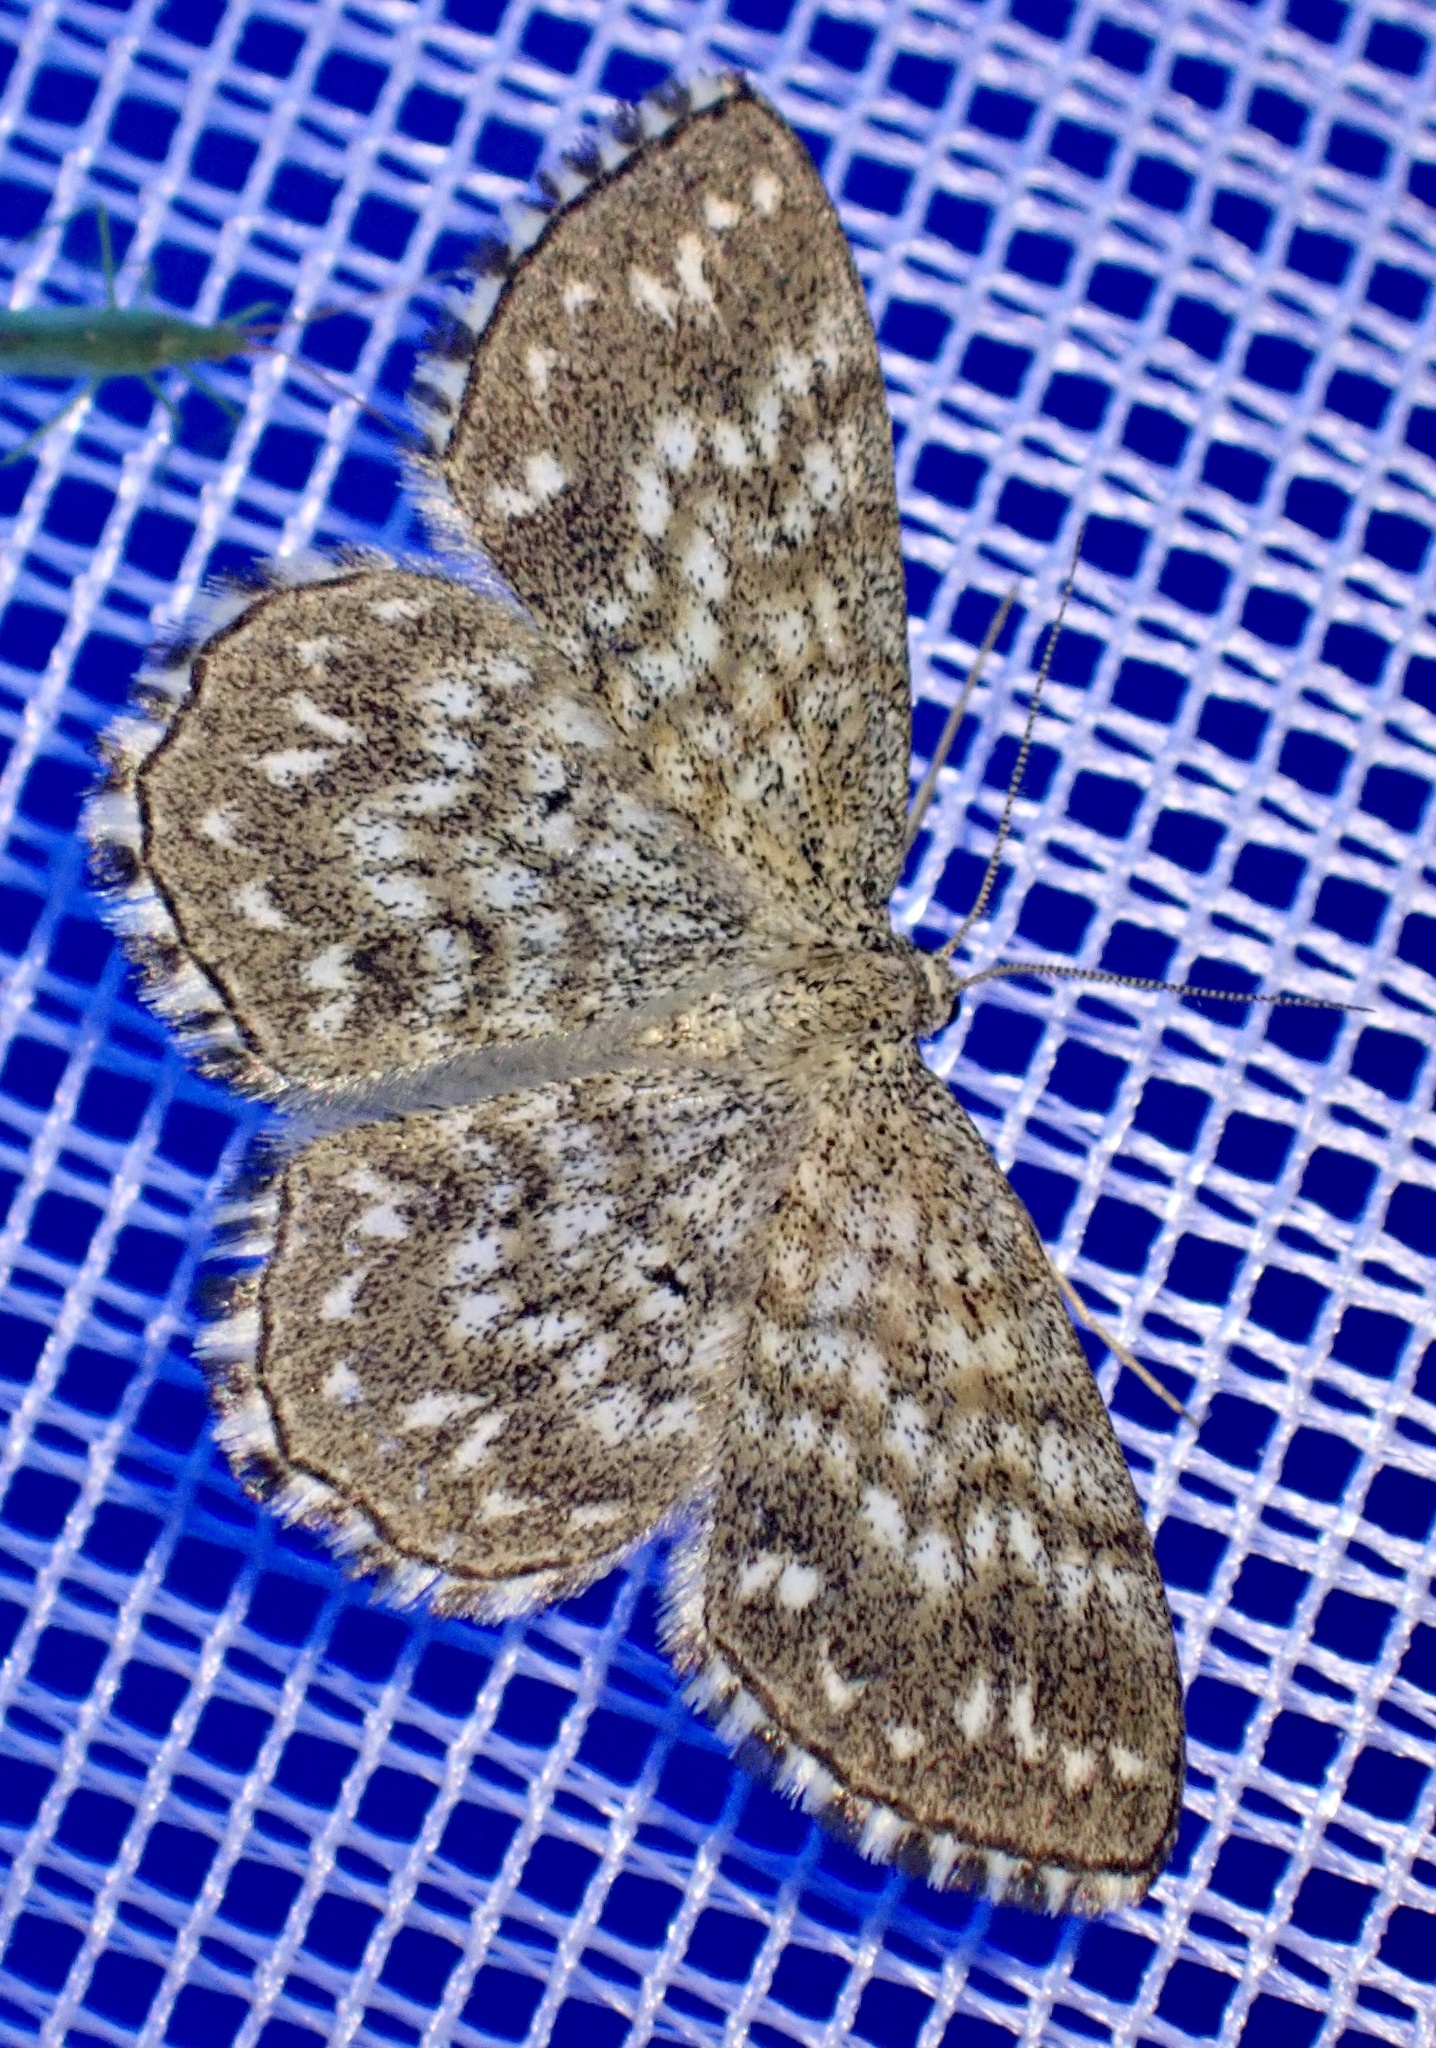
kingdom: Animalia
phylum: Arthropoda
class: Insecta
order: Lepidoptera
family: Geometridae
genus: Scopula
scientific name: Scopula tessellaria
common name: Dusky-brown wave
